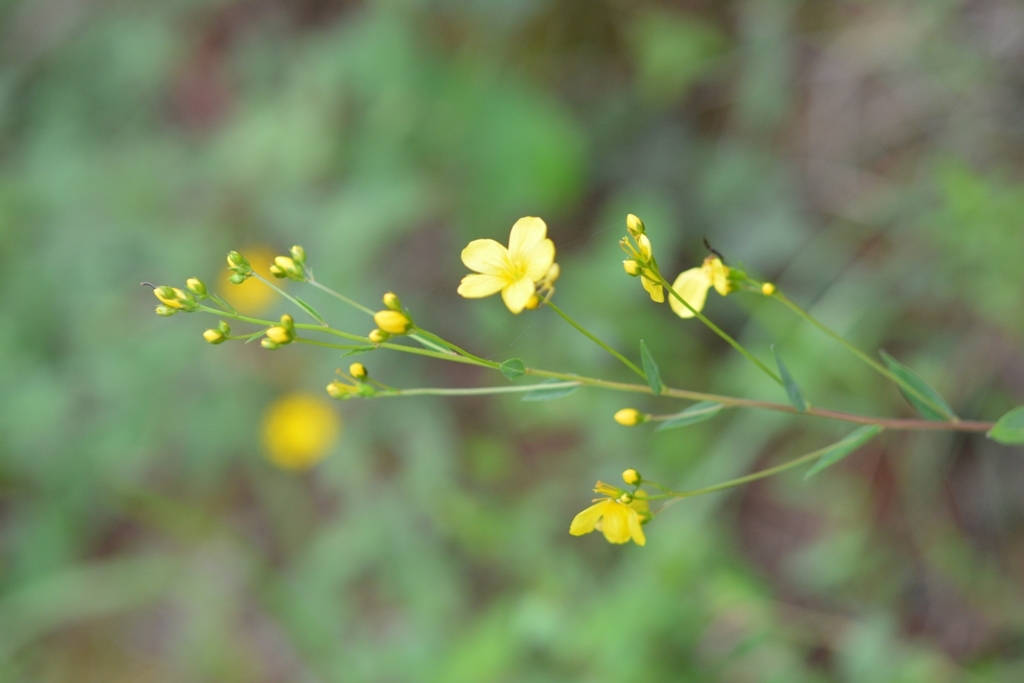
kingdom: Plantae
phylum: Tracheophyta
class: Magnoliopsida
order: Malpighiales
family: Linaceae
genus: Linum
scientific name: Linum mexicanum
